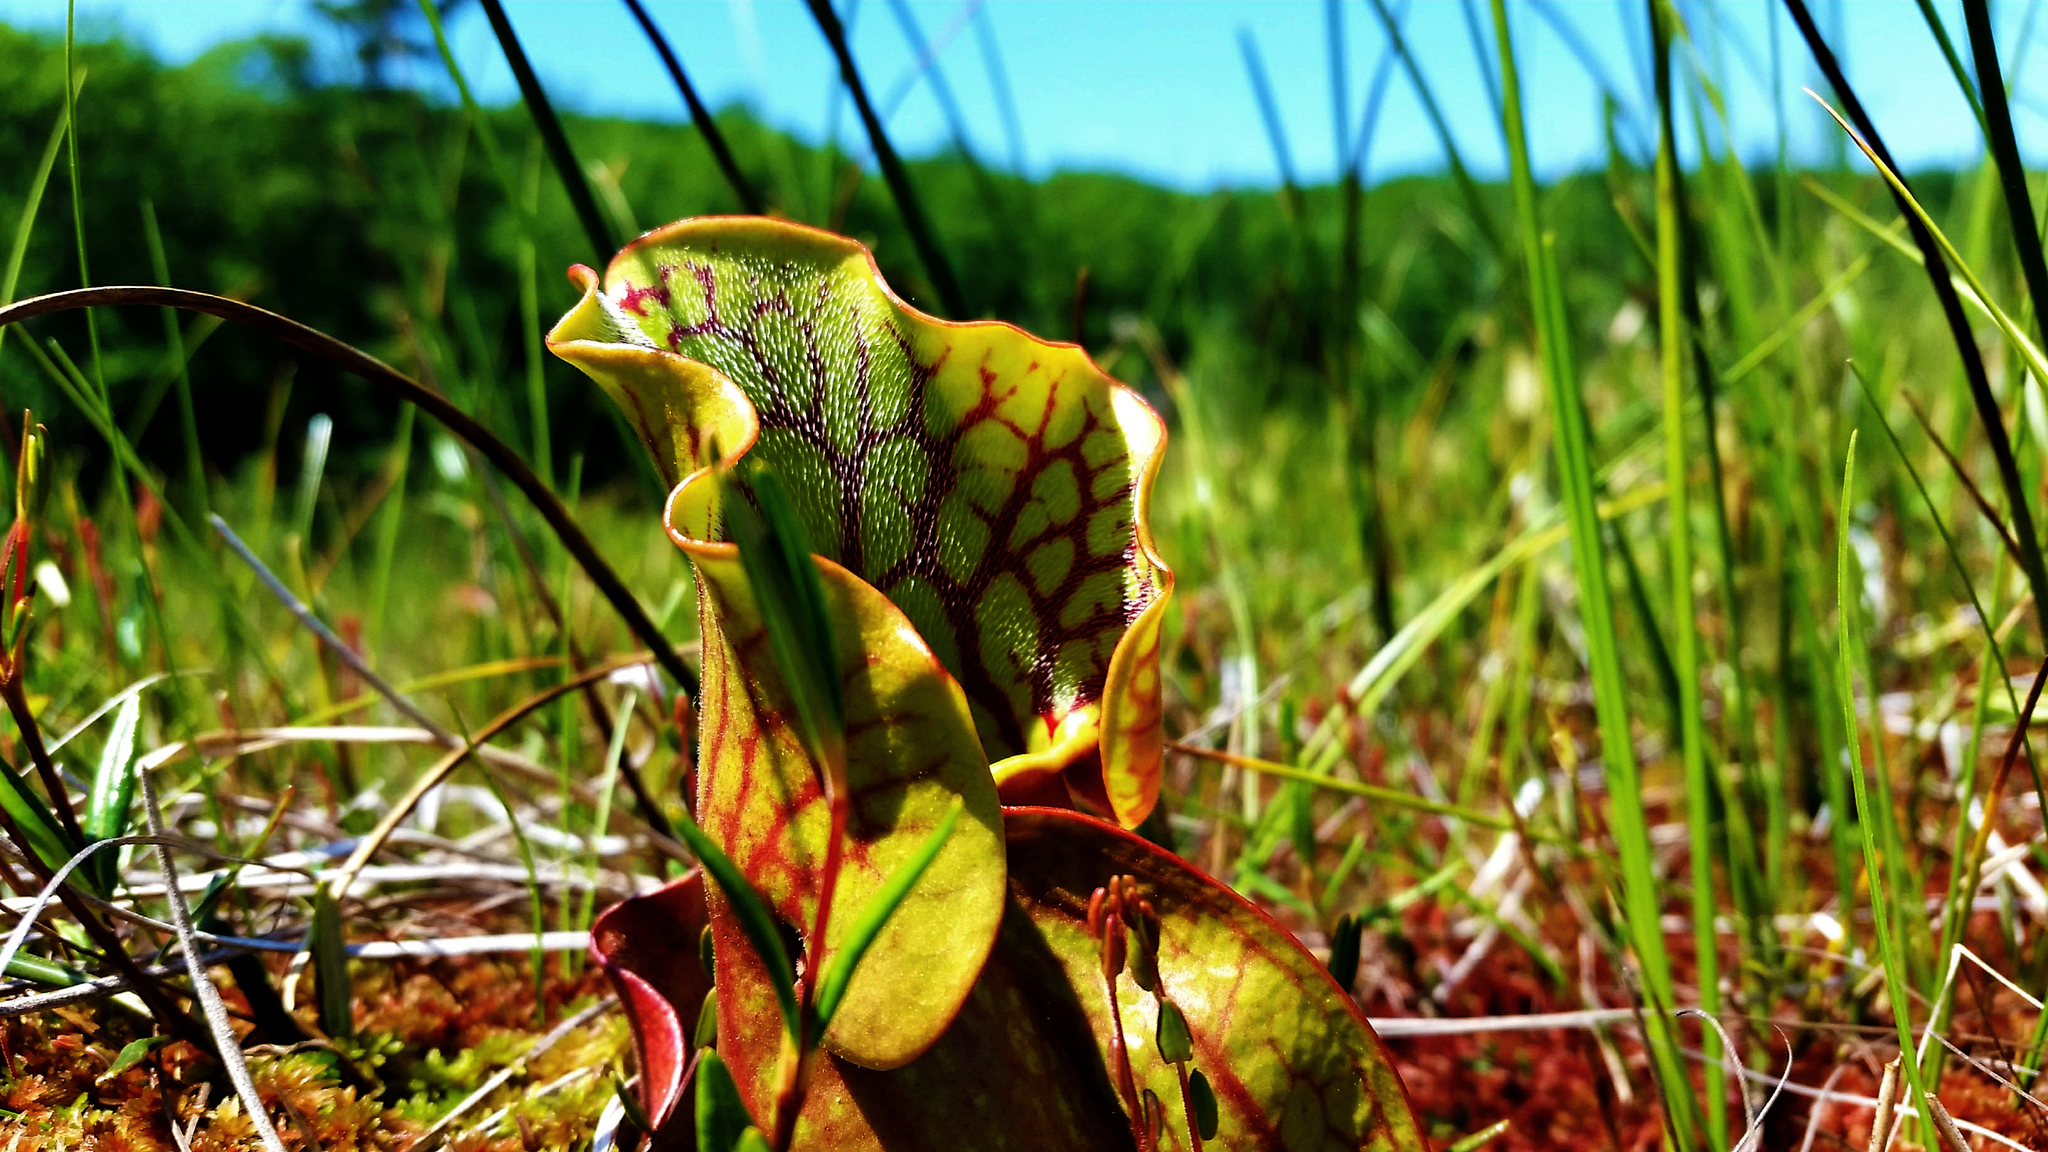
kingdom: Plantae
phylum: Tracheophyta
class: Magnoliopsida
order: Ericales
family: Sarraceniaceae
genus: Sarracenia
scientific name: Sarracenia purpurea
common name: Pitcherplant
